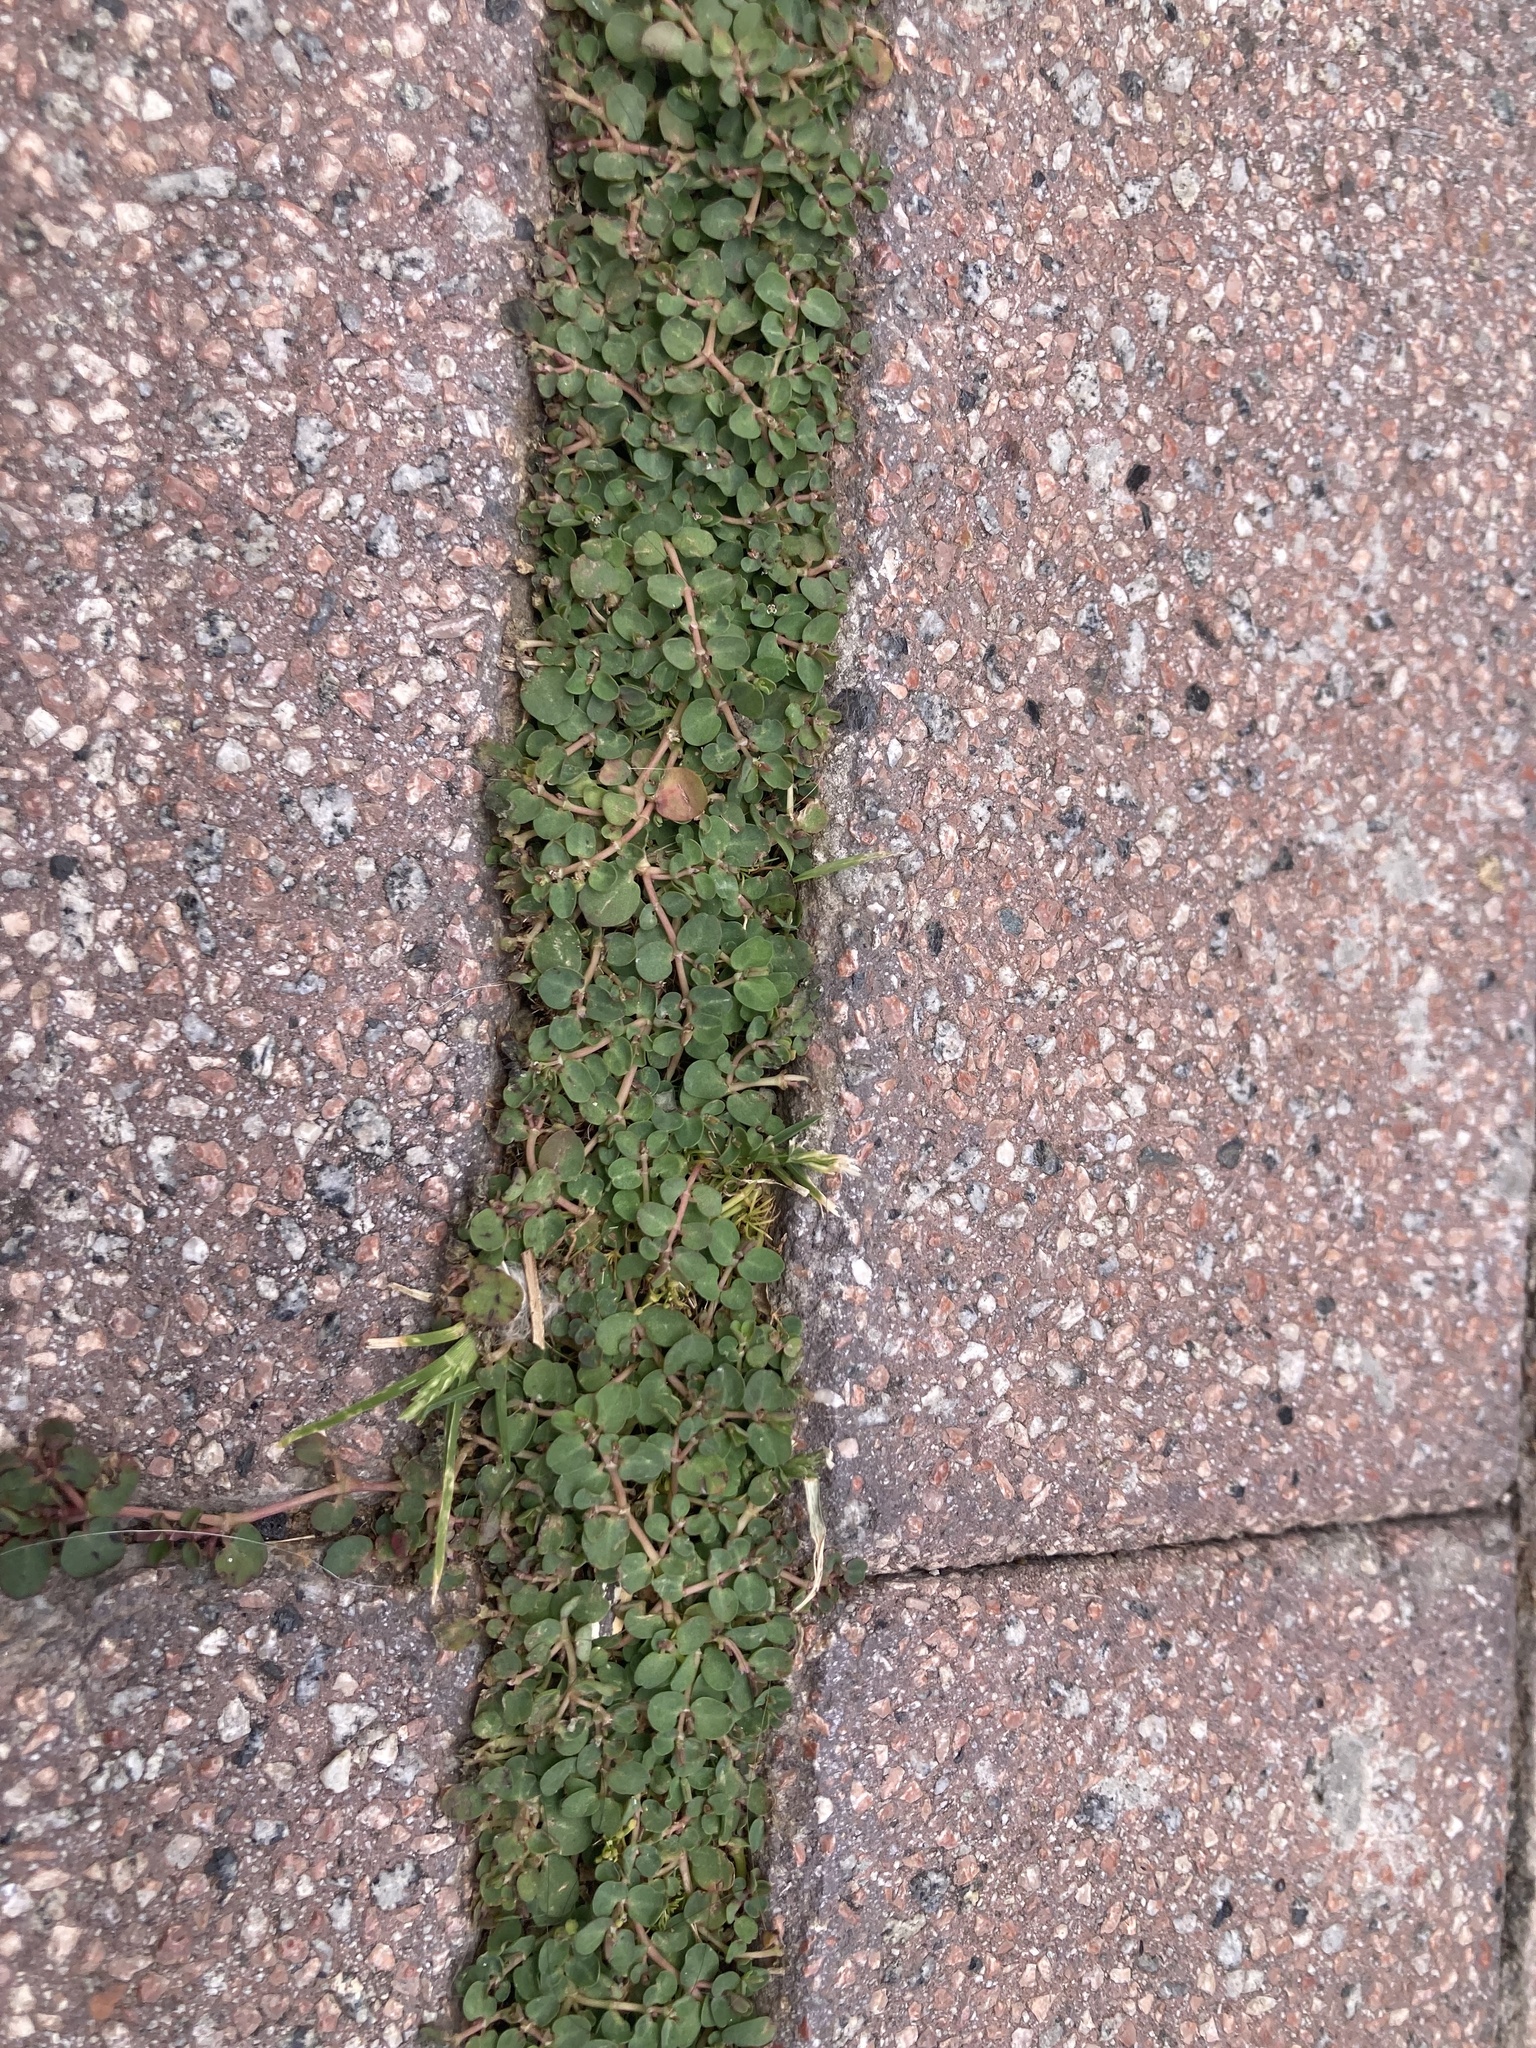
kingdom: Plantae
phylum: Tracheophyta
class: Magnoliopsida
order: Malpighiales
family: Euphorbiaceae
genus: Euphorbia
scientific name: Euphorbia serpens
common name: Matted sandmat
